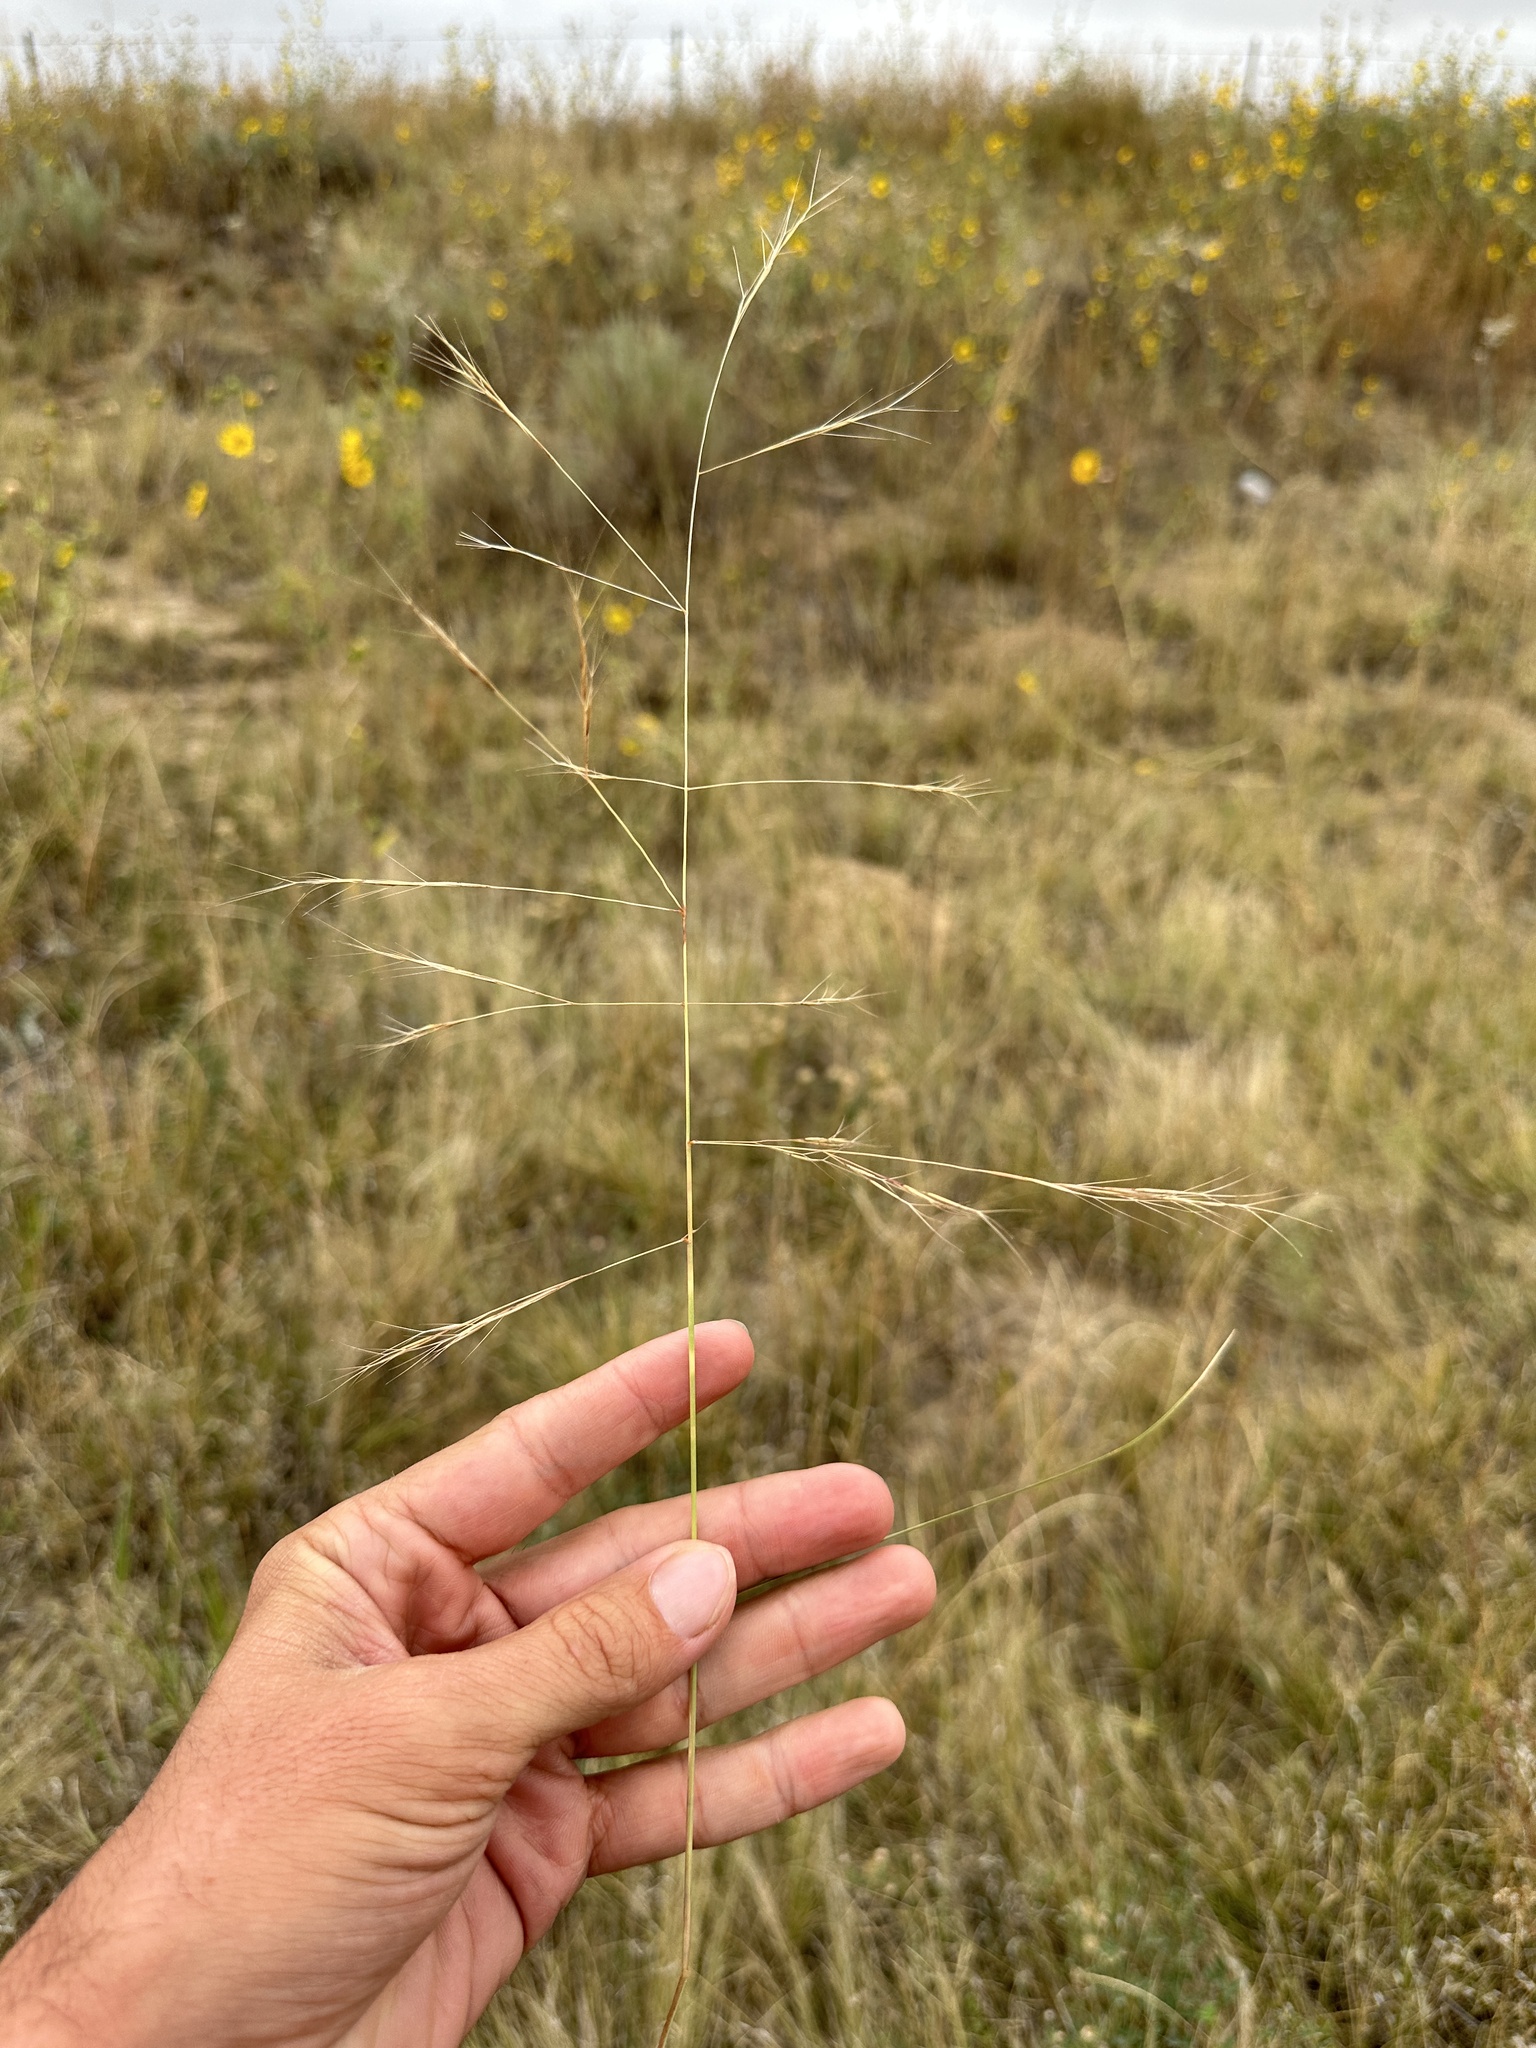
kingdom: Plantae
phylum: Tracheophyta
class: Liliopsida
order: Poales
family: Poaceae
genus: Aristida
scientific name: Aristida divaricata
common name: Poverty grass
